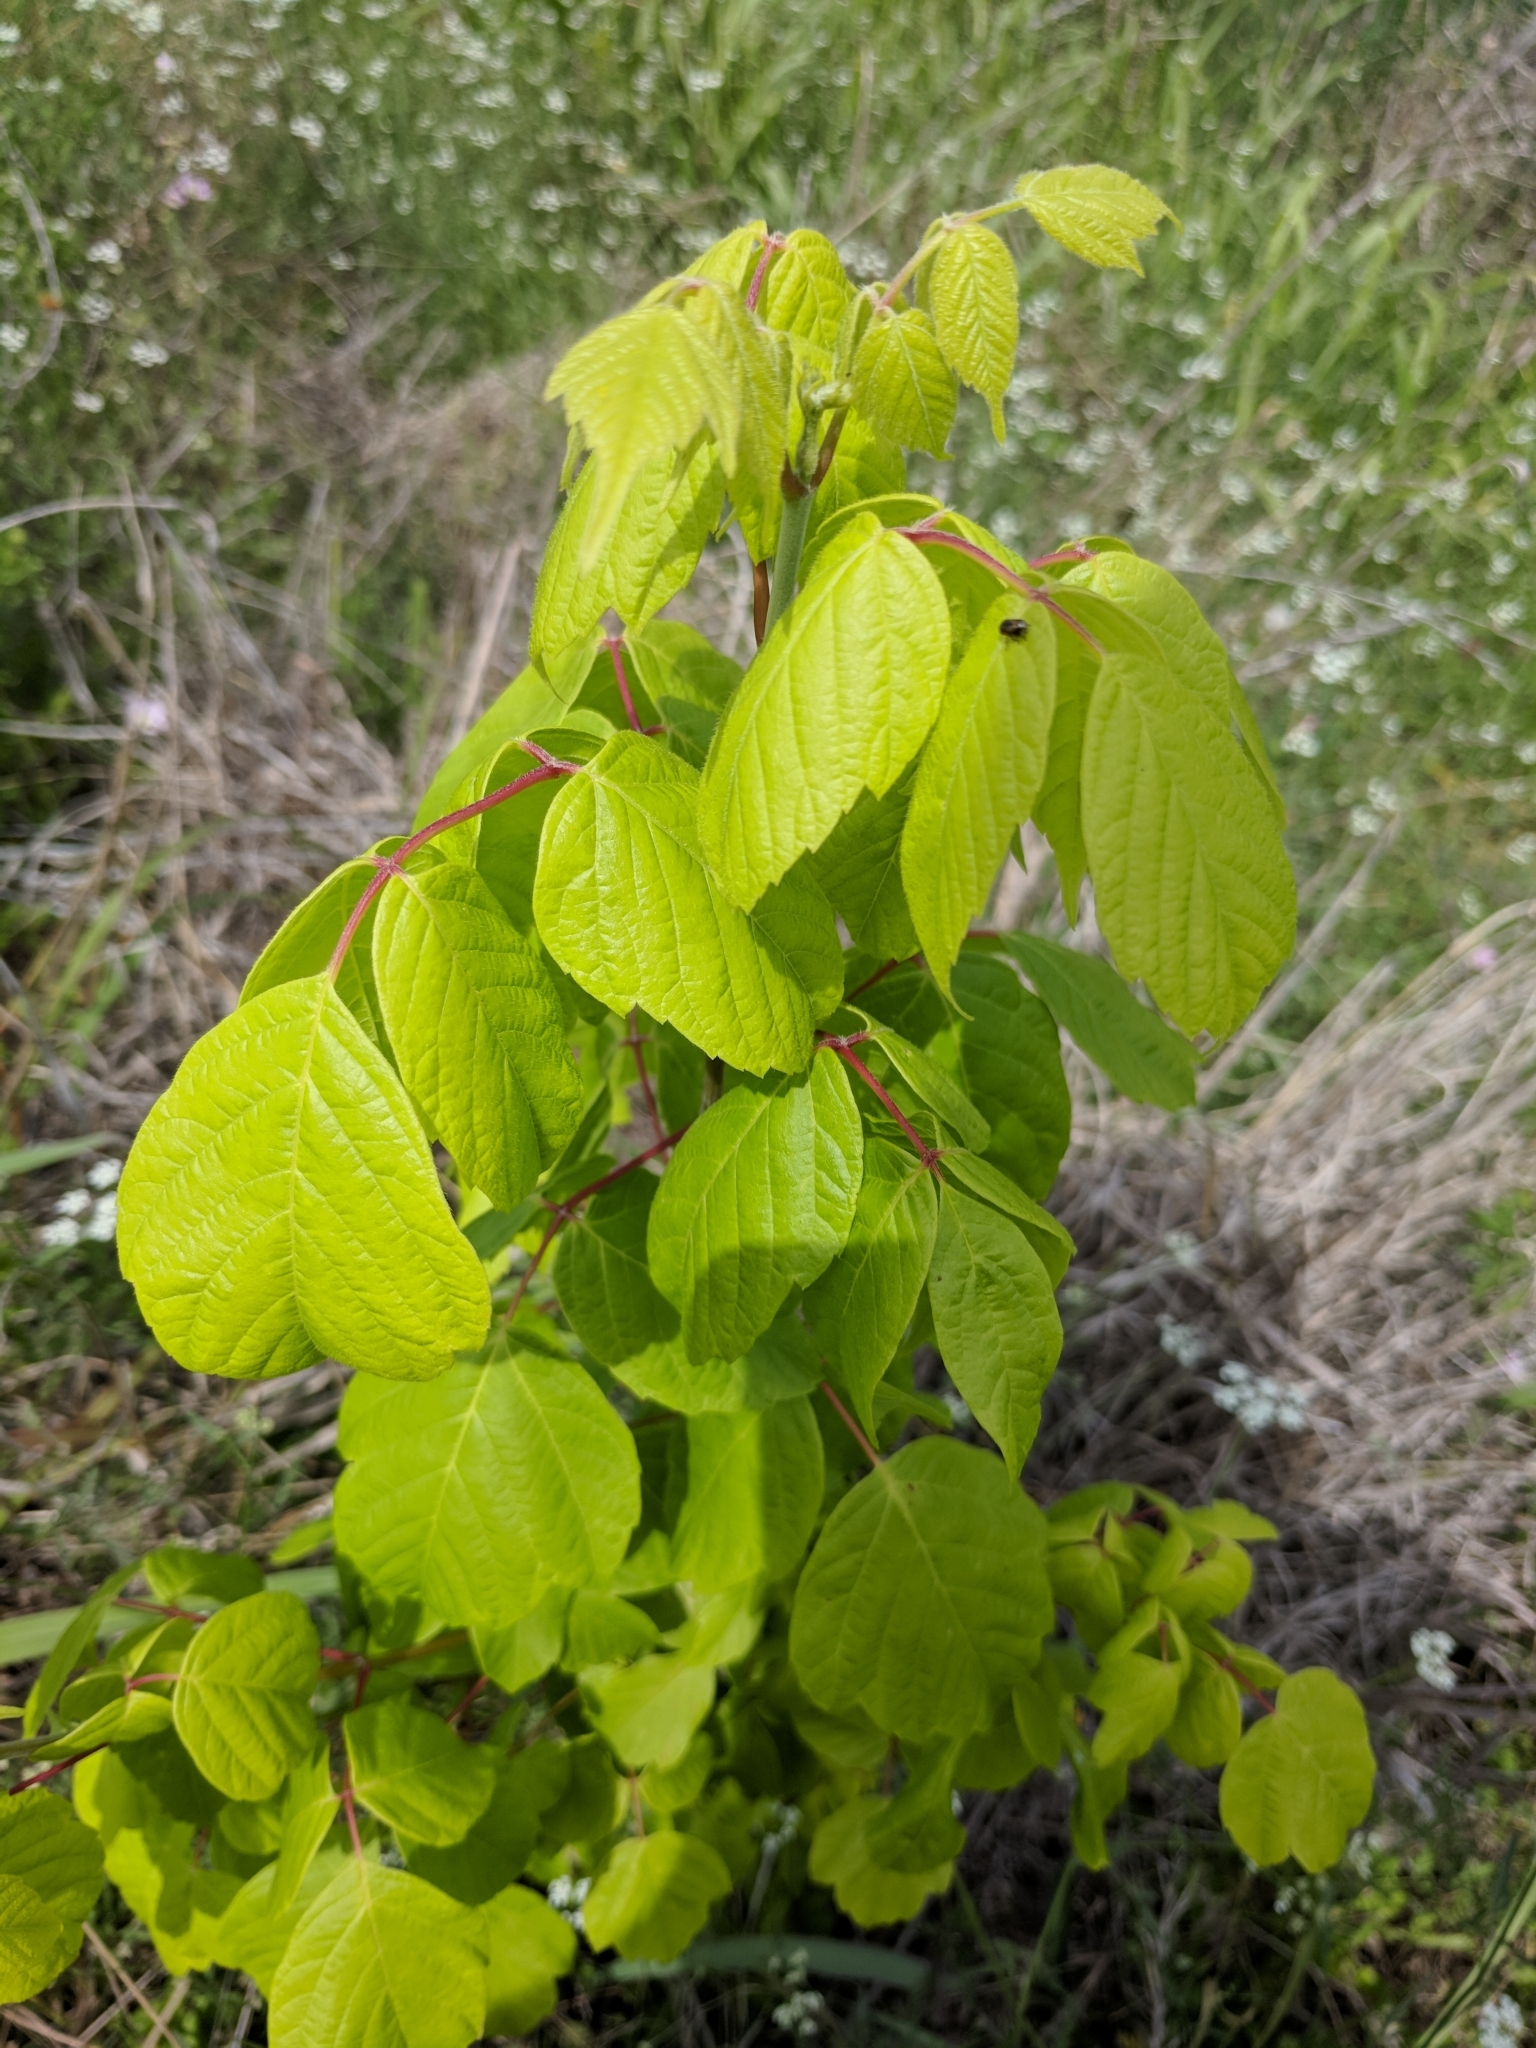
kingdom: Plantae
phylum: Tracheophyta
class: Magnoliopsida
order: Sapindales
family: Sapindaceae
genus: Acer
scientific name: Acer negundo
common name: Ashleaf maple
